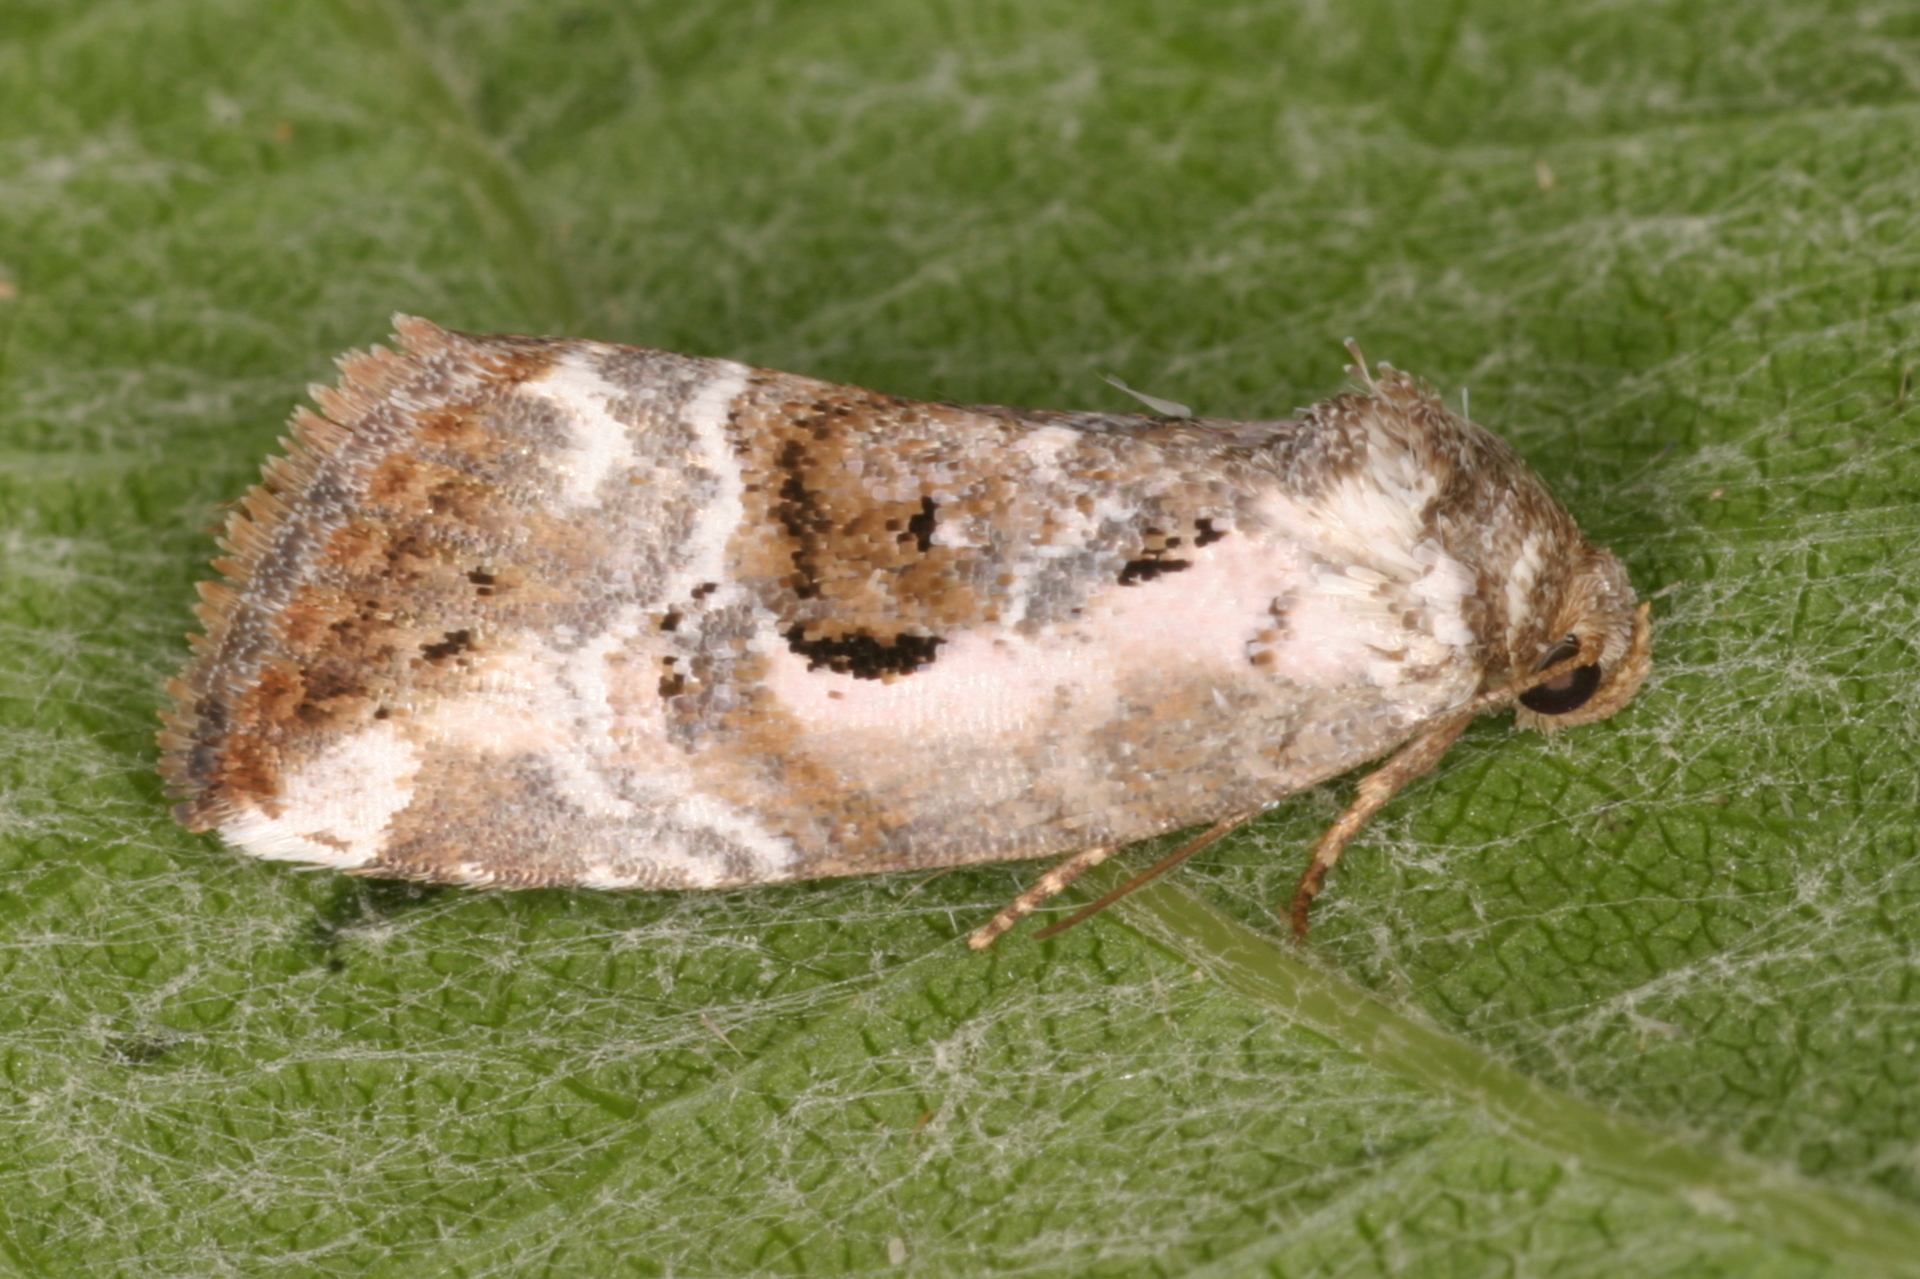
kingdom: Animalia
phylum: Arthropoda
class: Insecta
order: Lepidoptera
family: Noctuidae
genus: Elaphria
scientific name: Elaphria venustula
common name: Rosy marbled
